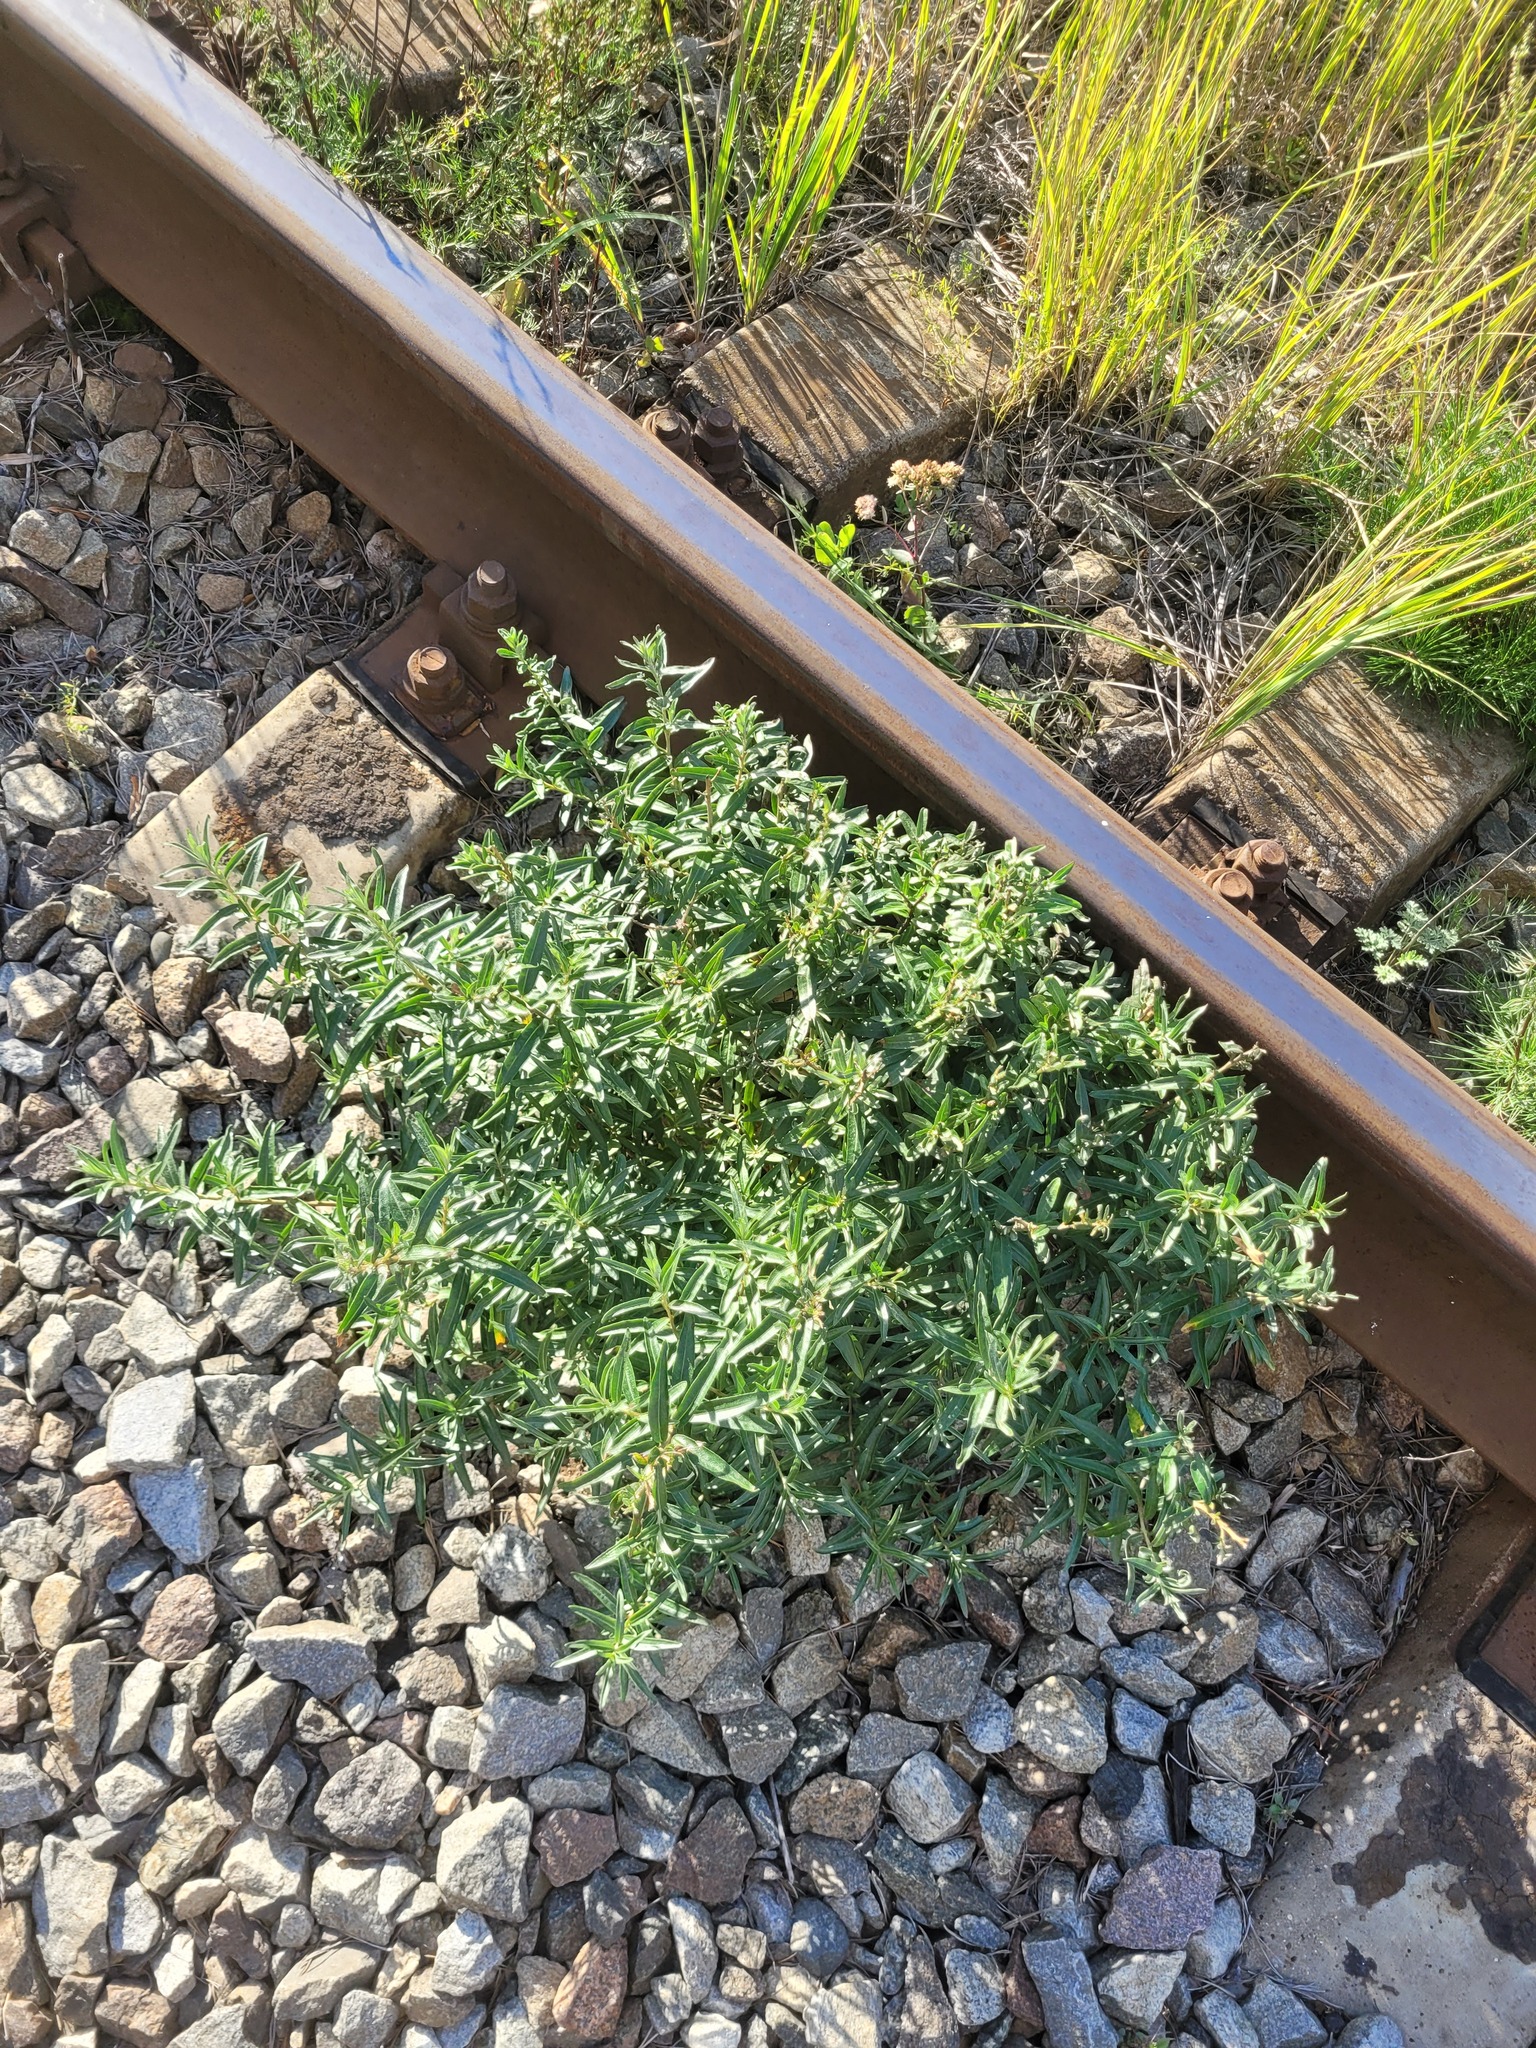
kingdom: Plantae
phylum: Tracheophyta
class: Magnoliopsida
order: Rosales
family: Elaeagnaceae
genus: Hippophae
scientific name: Hippophae rhamnoides
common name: Sea-buckthorn
